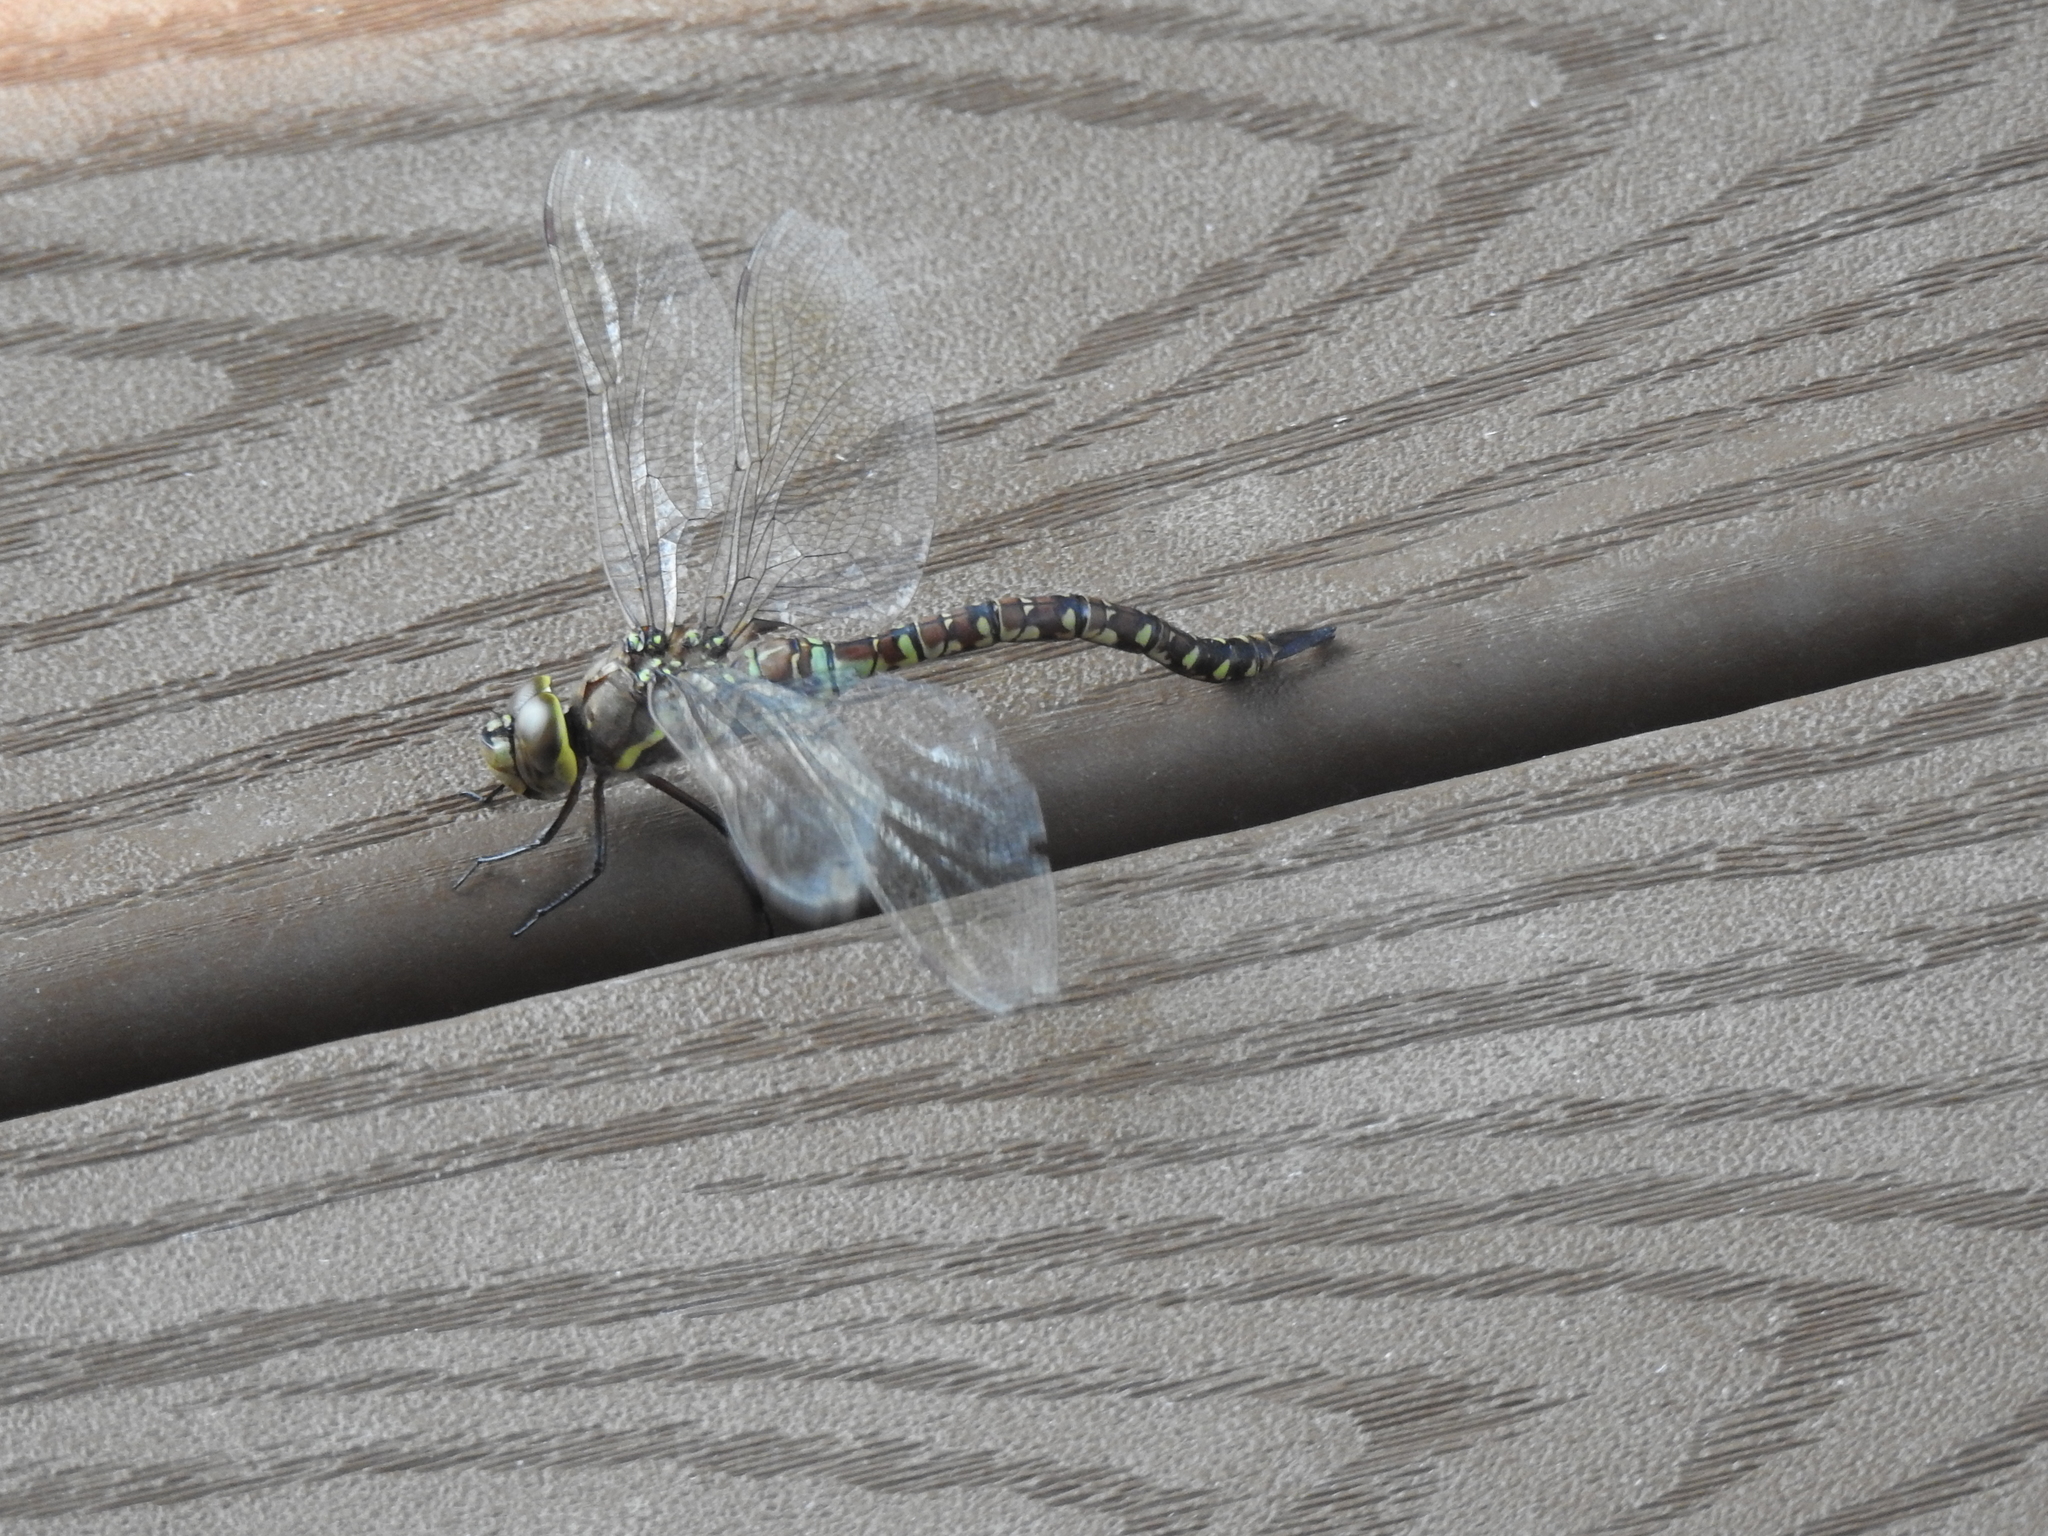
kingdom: Animalia
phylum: Arthropoda
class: Insecta
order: Odonata
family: Aeshnidae
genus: Rhionaeschna
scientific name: Rhionaeschna multicolor
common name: Blue-eyed darner
